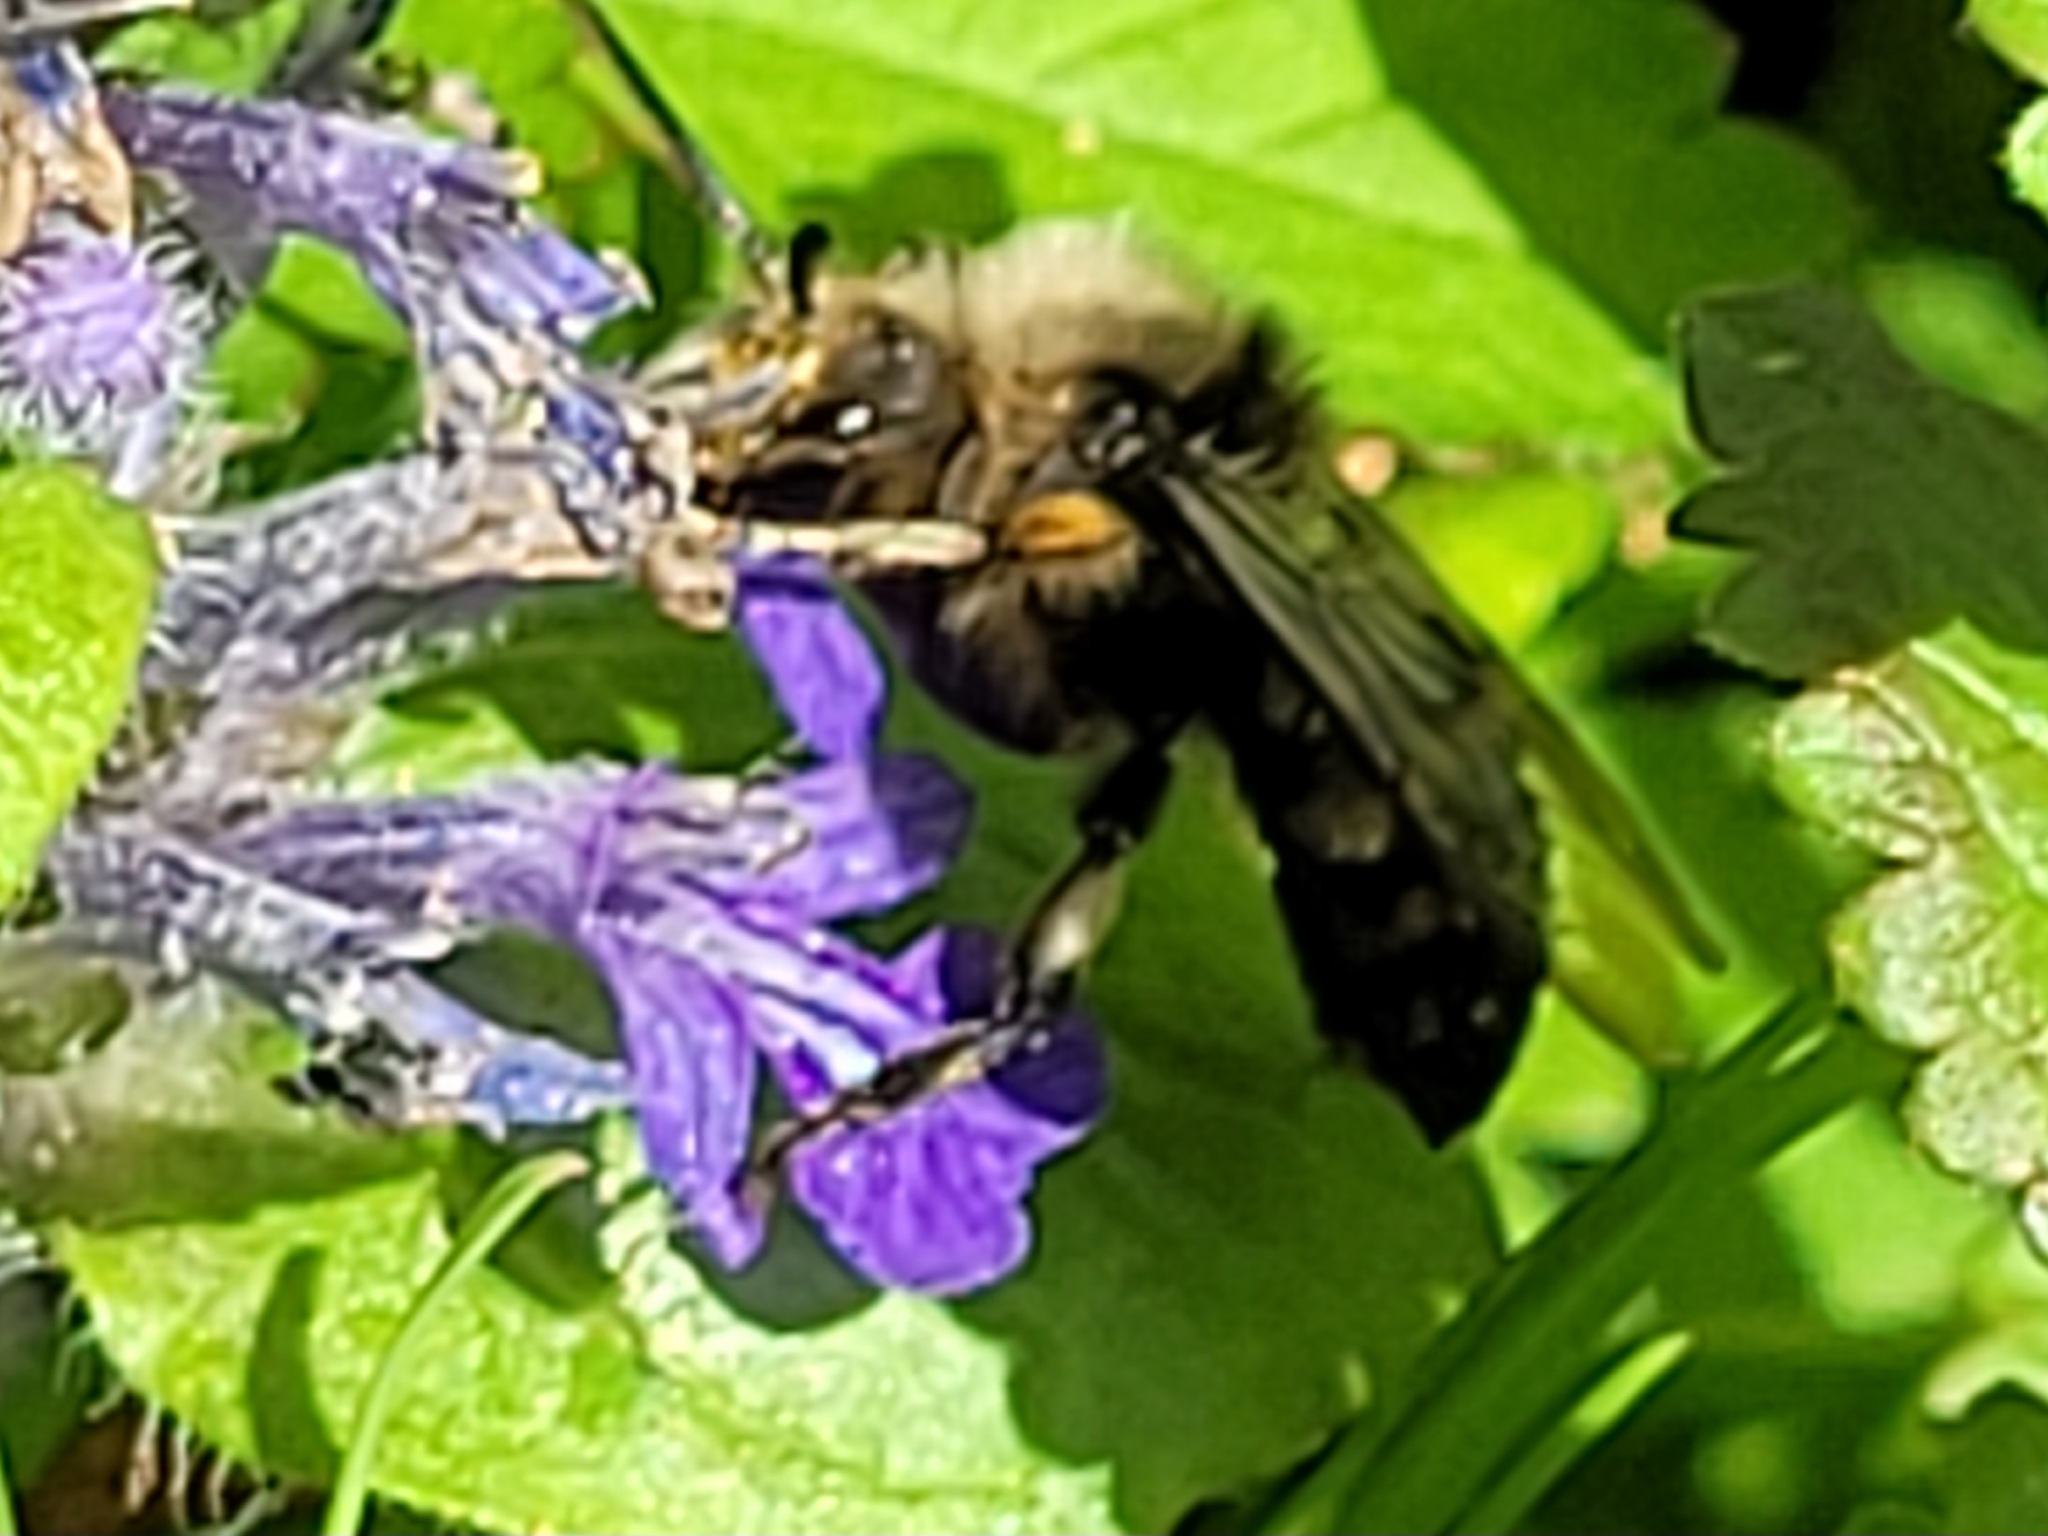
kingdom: Animalia
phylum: Arthropoda
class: Insecta
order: Hymenoptera
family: Apidae
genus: Melecta
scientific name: Melecta albifrons
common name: Common mourning bee
